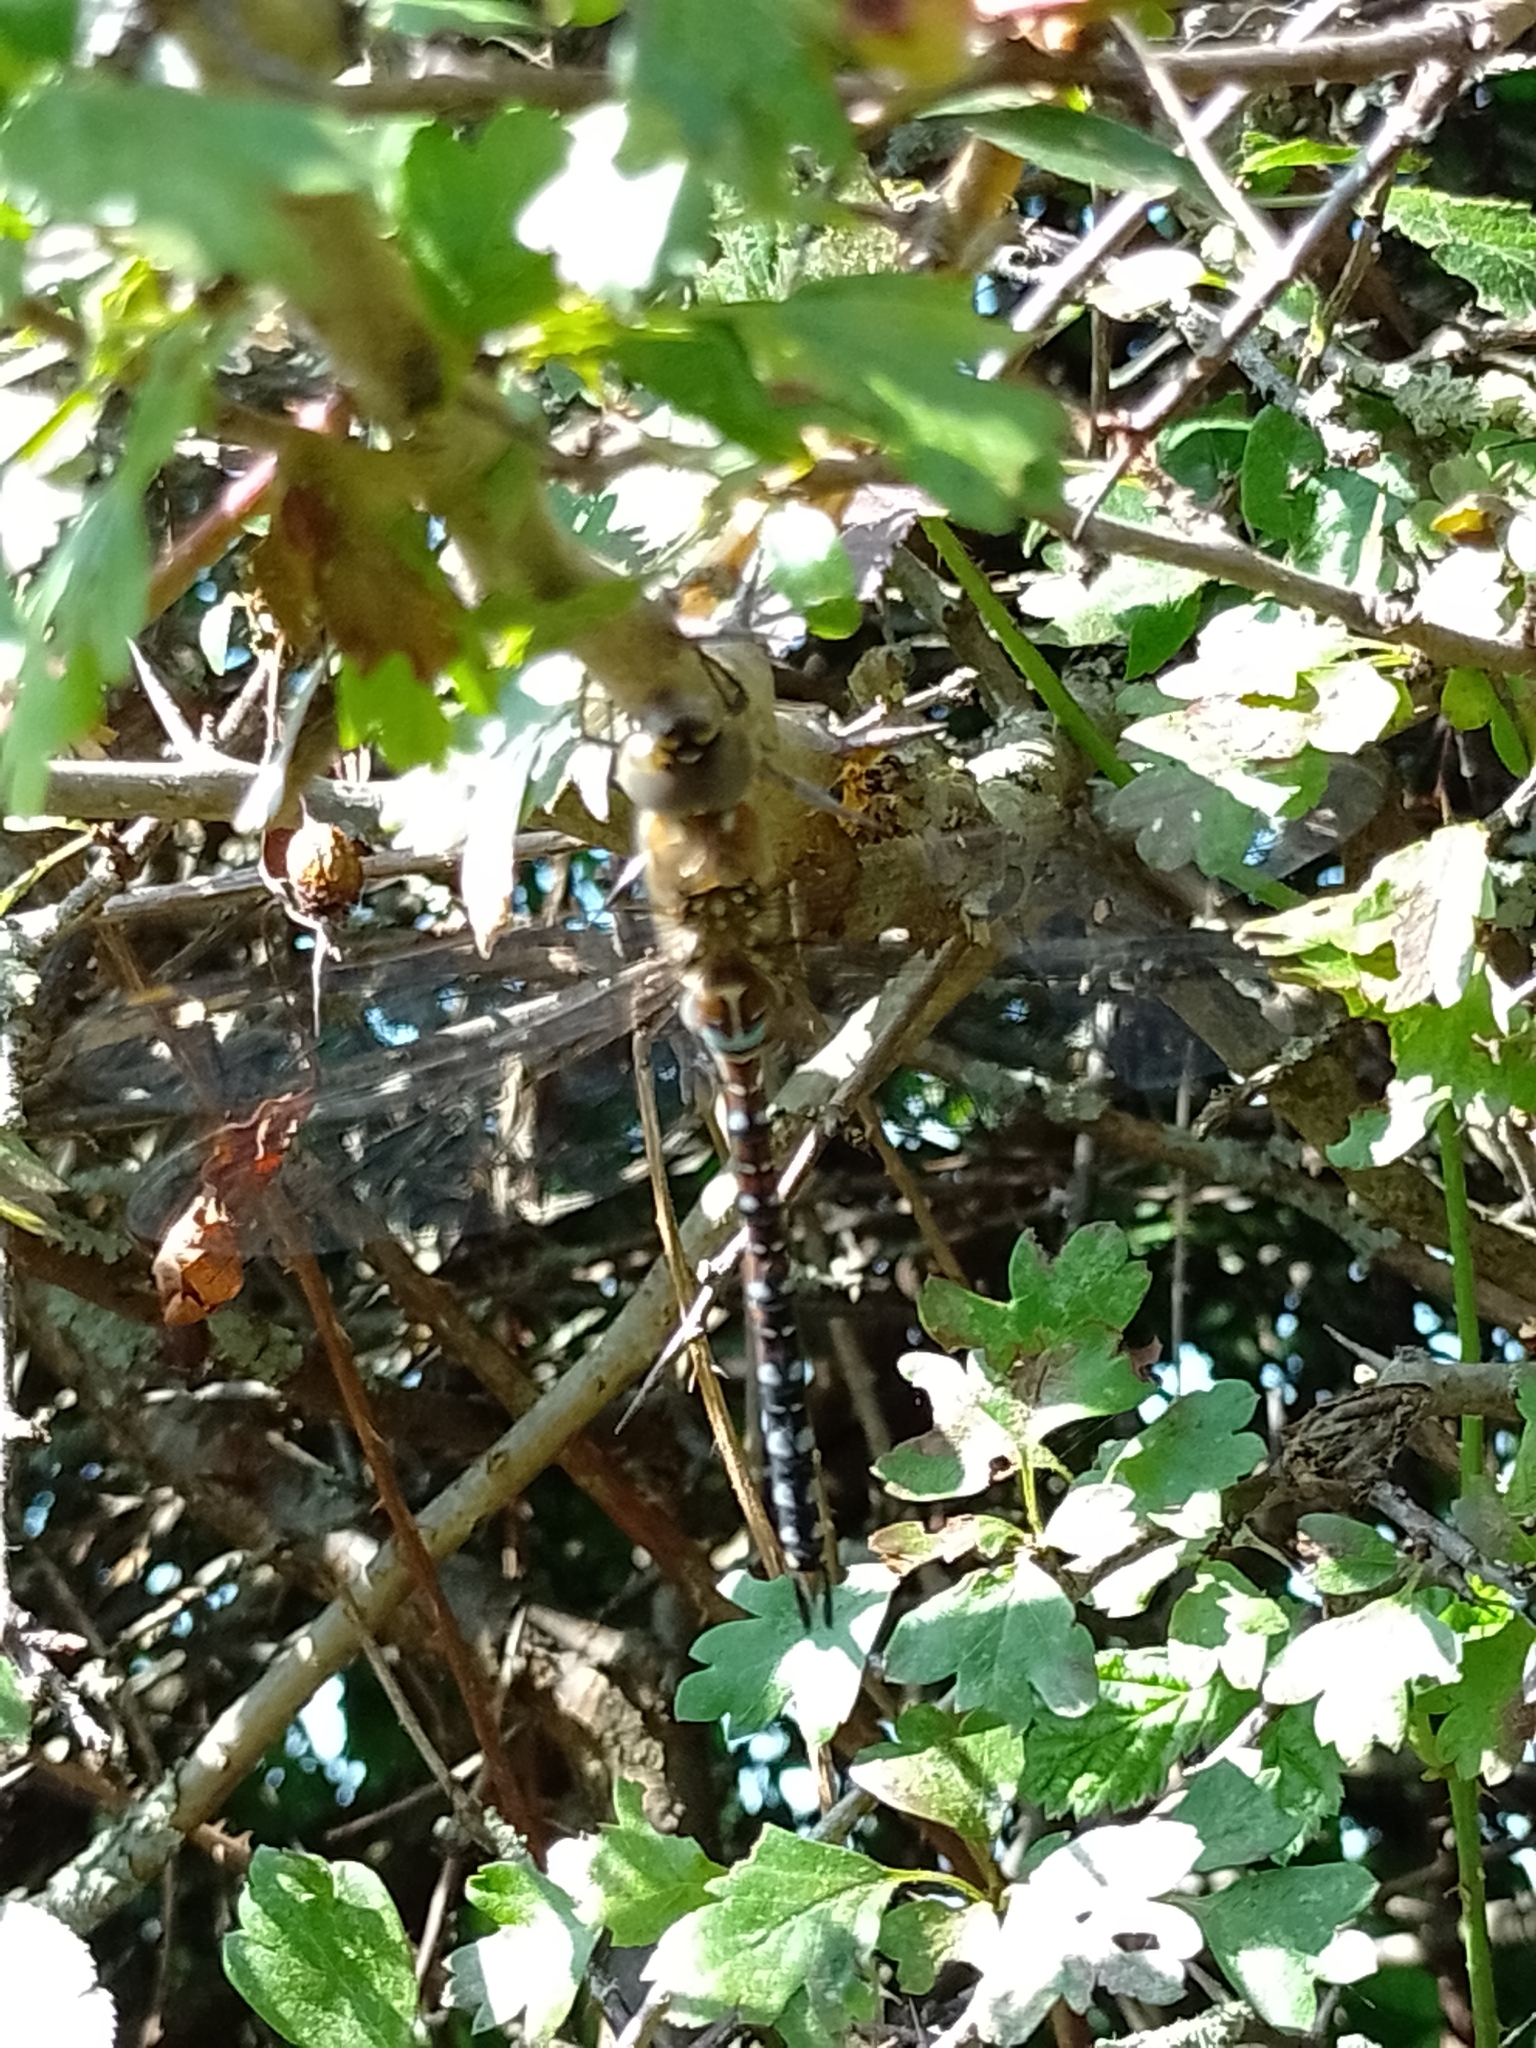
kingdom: Animalia
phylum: Arthropoda
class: Insecta
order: Odonata
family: Aeshnidae
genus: Aeshna
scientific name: Aeshna mixta
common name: Migrant hawker
